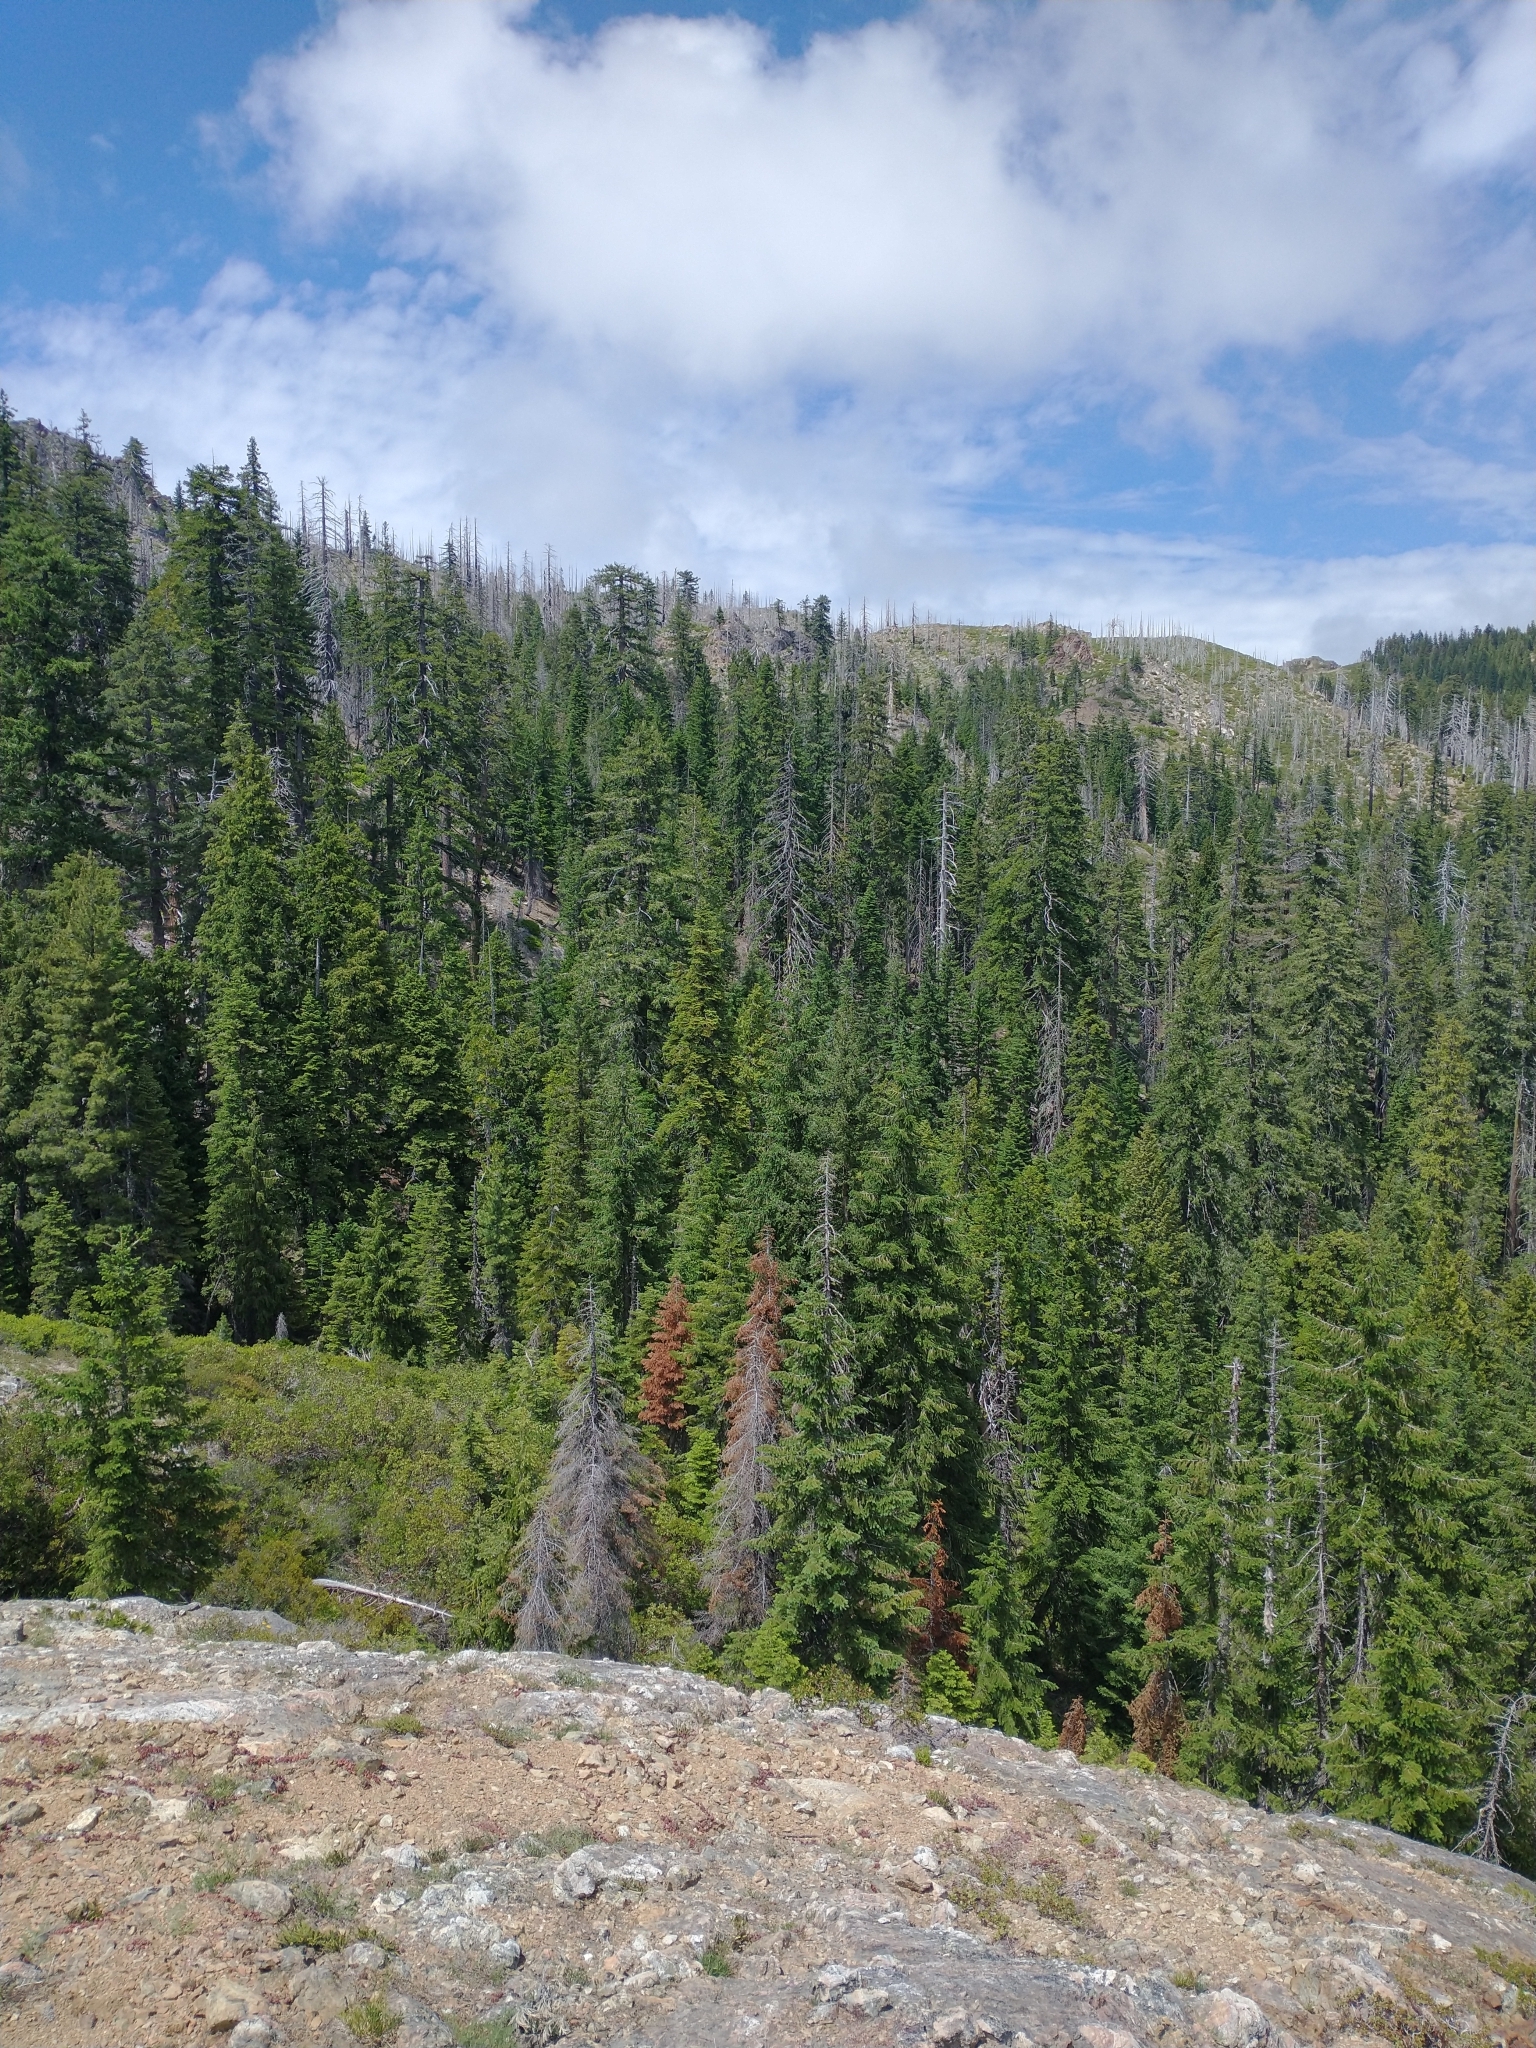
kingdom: Plantae
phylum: Tracheophyta
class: Pinopsida
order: Pinales
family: Pinaceae
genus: Pseudotsuga
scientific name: Pseudotsuga menziesii
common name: Douglas fir
